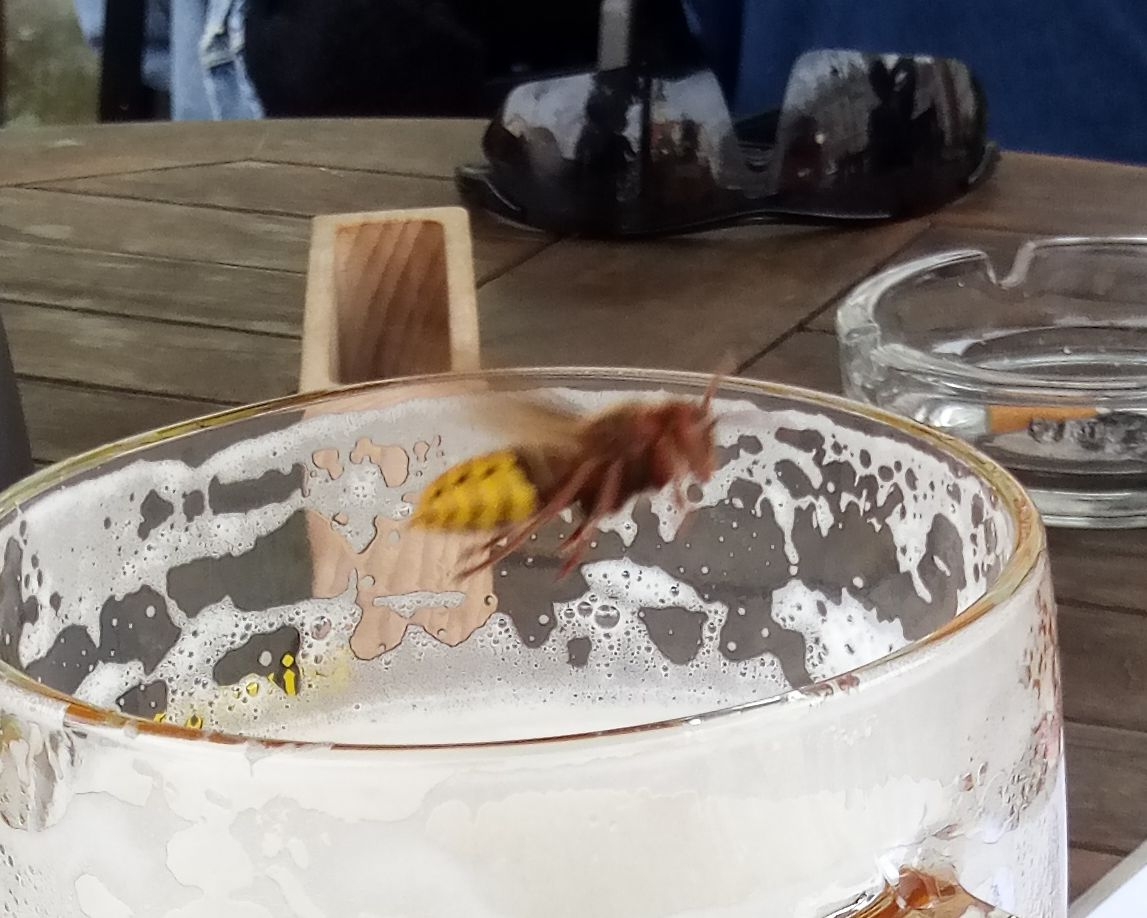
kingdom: Animalia
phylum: Arthropoda
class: Insecta
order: Hymenoptera
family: Vespidae
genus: Vespa
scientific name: Vespa crabro
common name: Hornet
